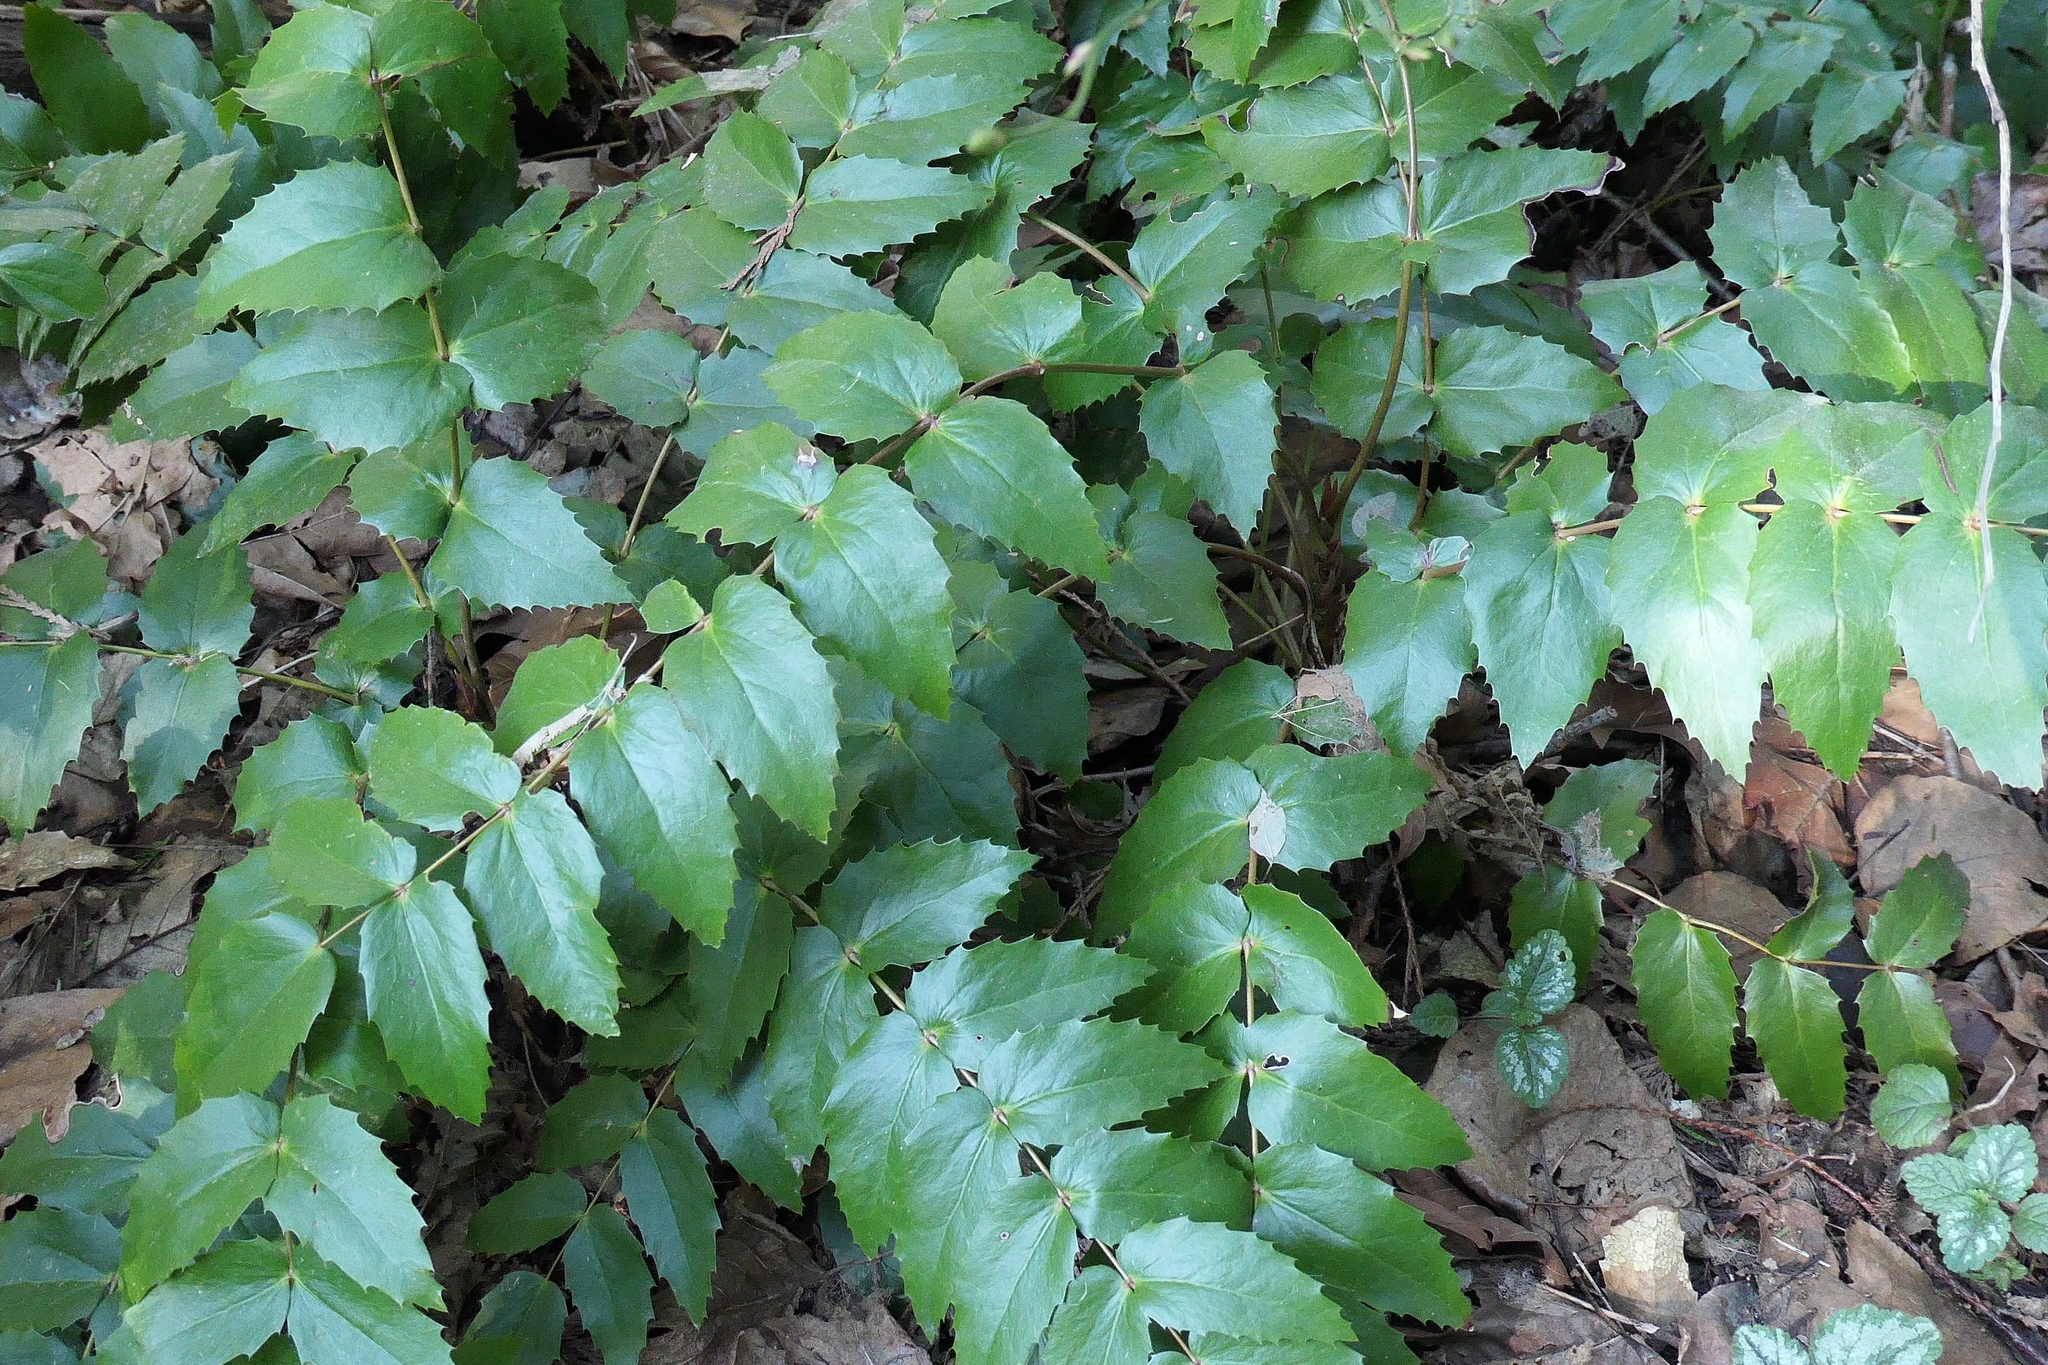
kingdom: Plantae
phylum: Tracheophyta
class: Magnoliopsida
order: Ranunculales
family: Berberidaceae
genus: Mahonia
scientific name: Mahonia nervosa
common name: Cascade oregon-grape
